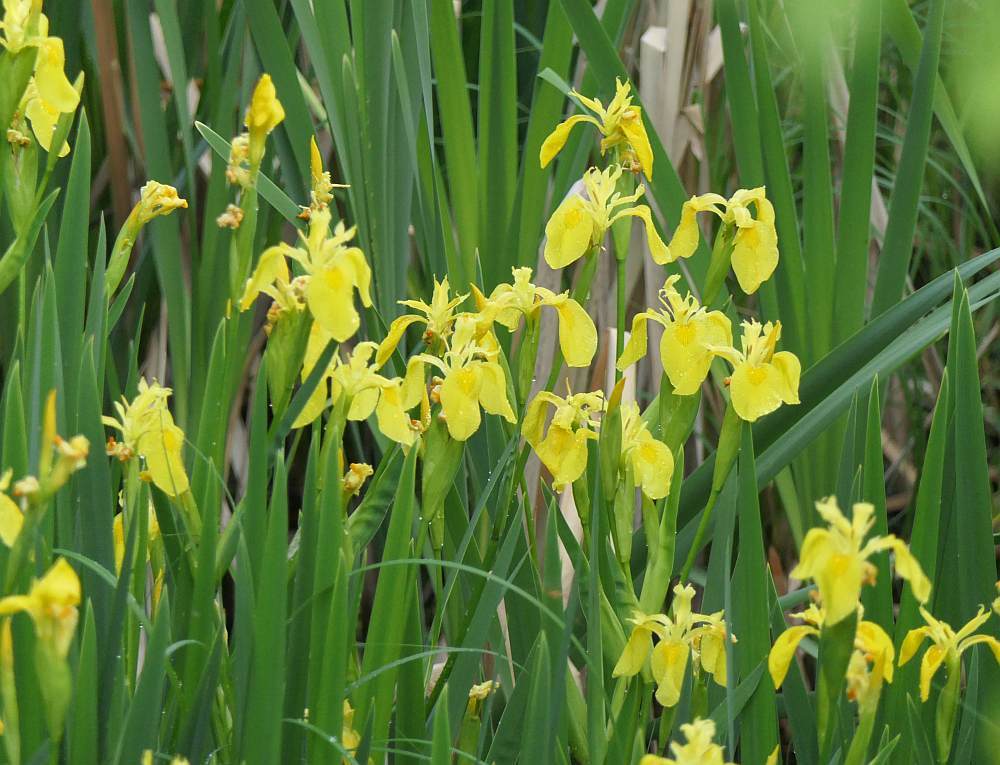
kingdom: Plantae
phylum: Tracheophyta
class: Liliopsida
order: Asparagales
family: Iridaceae
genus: Iris
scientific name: Iris pseudacorus
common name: Yellow flag
